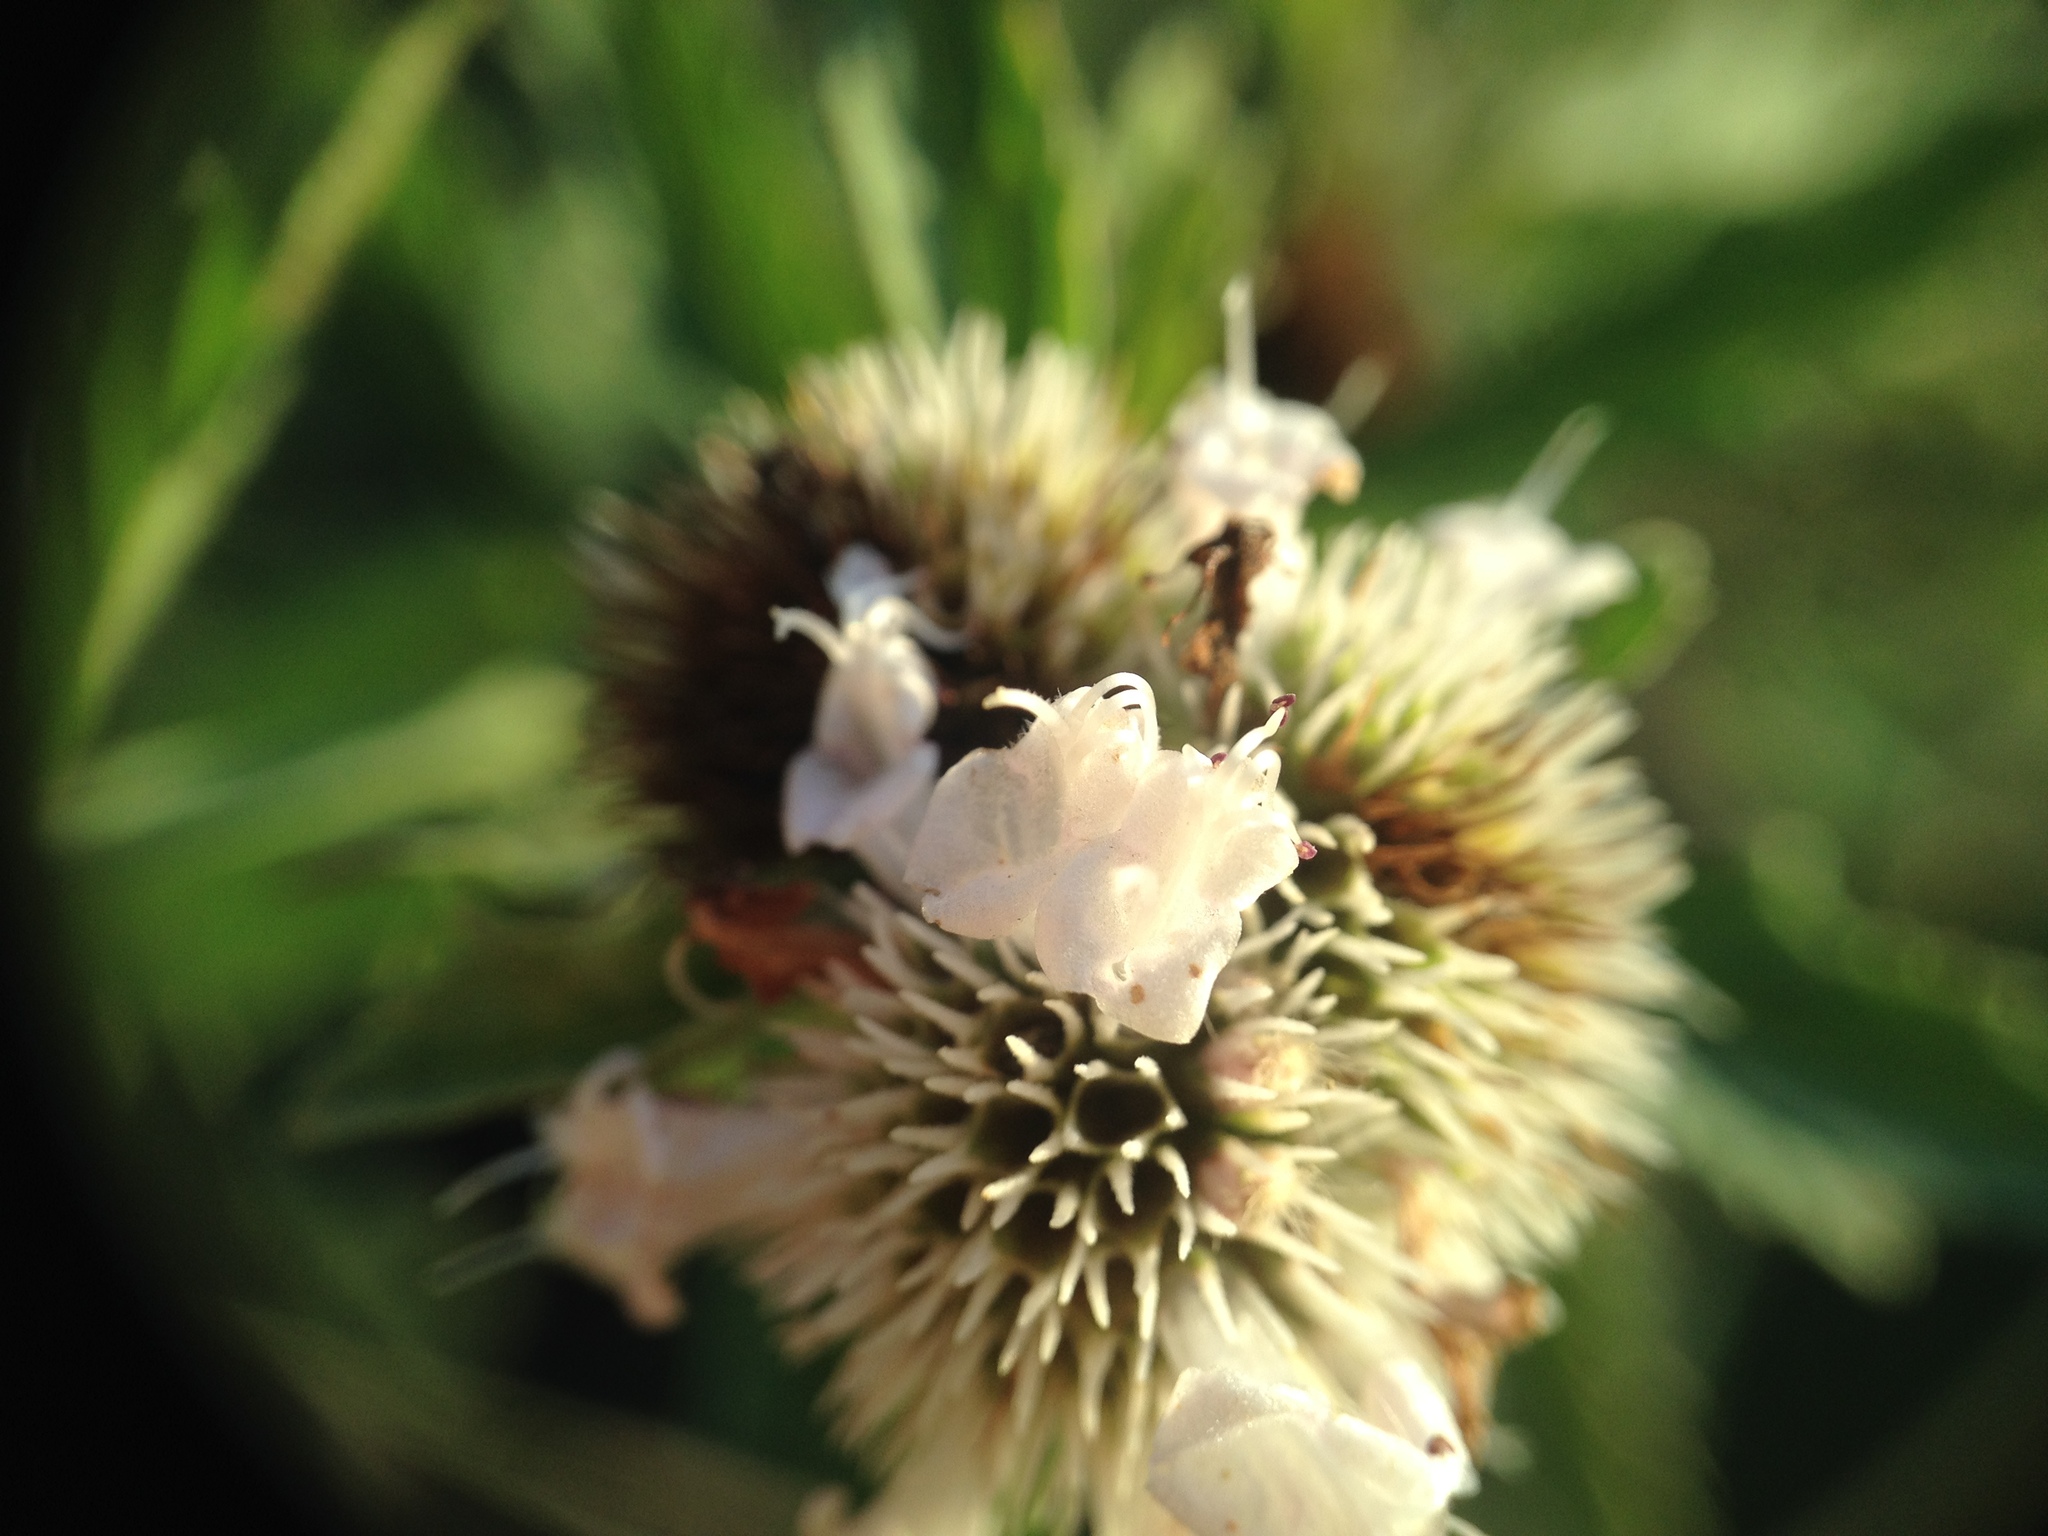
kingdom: Plantae
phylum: Tracheophyta
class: Magnoliopsida
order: Lamiales
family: Lamiaceae
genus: Hyptis
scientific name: Hyptis lappacea
